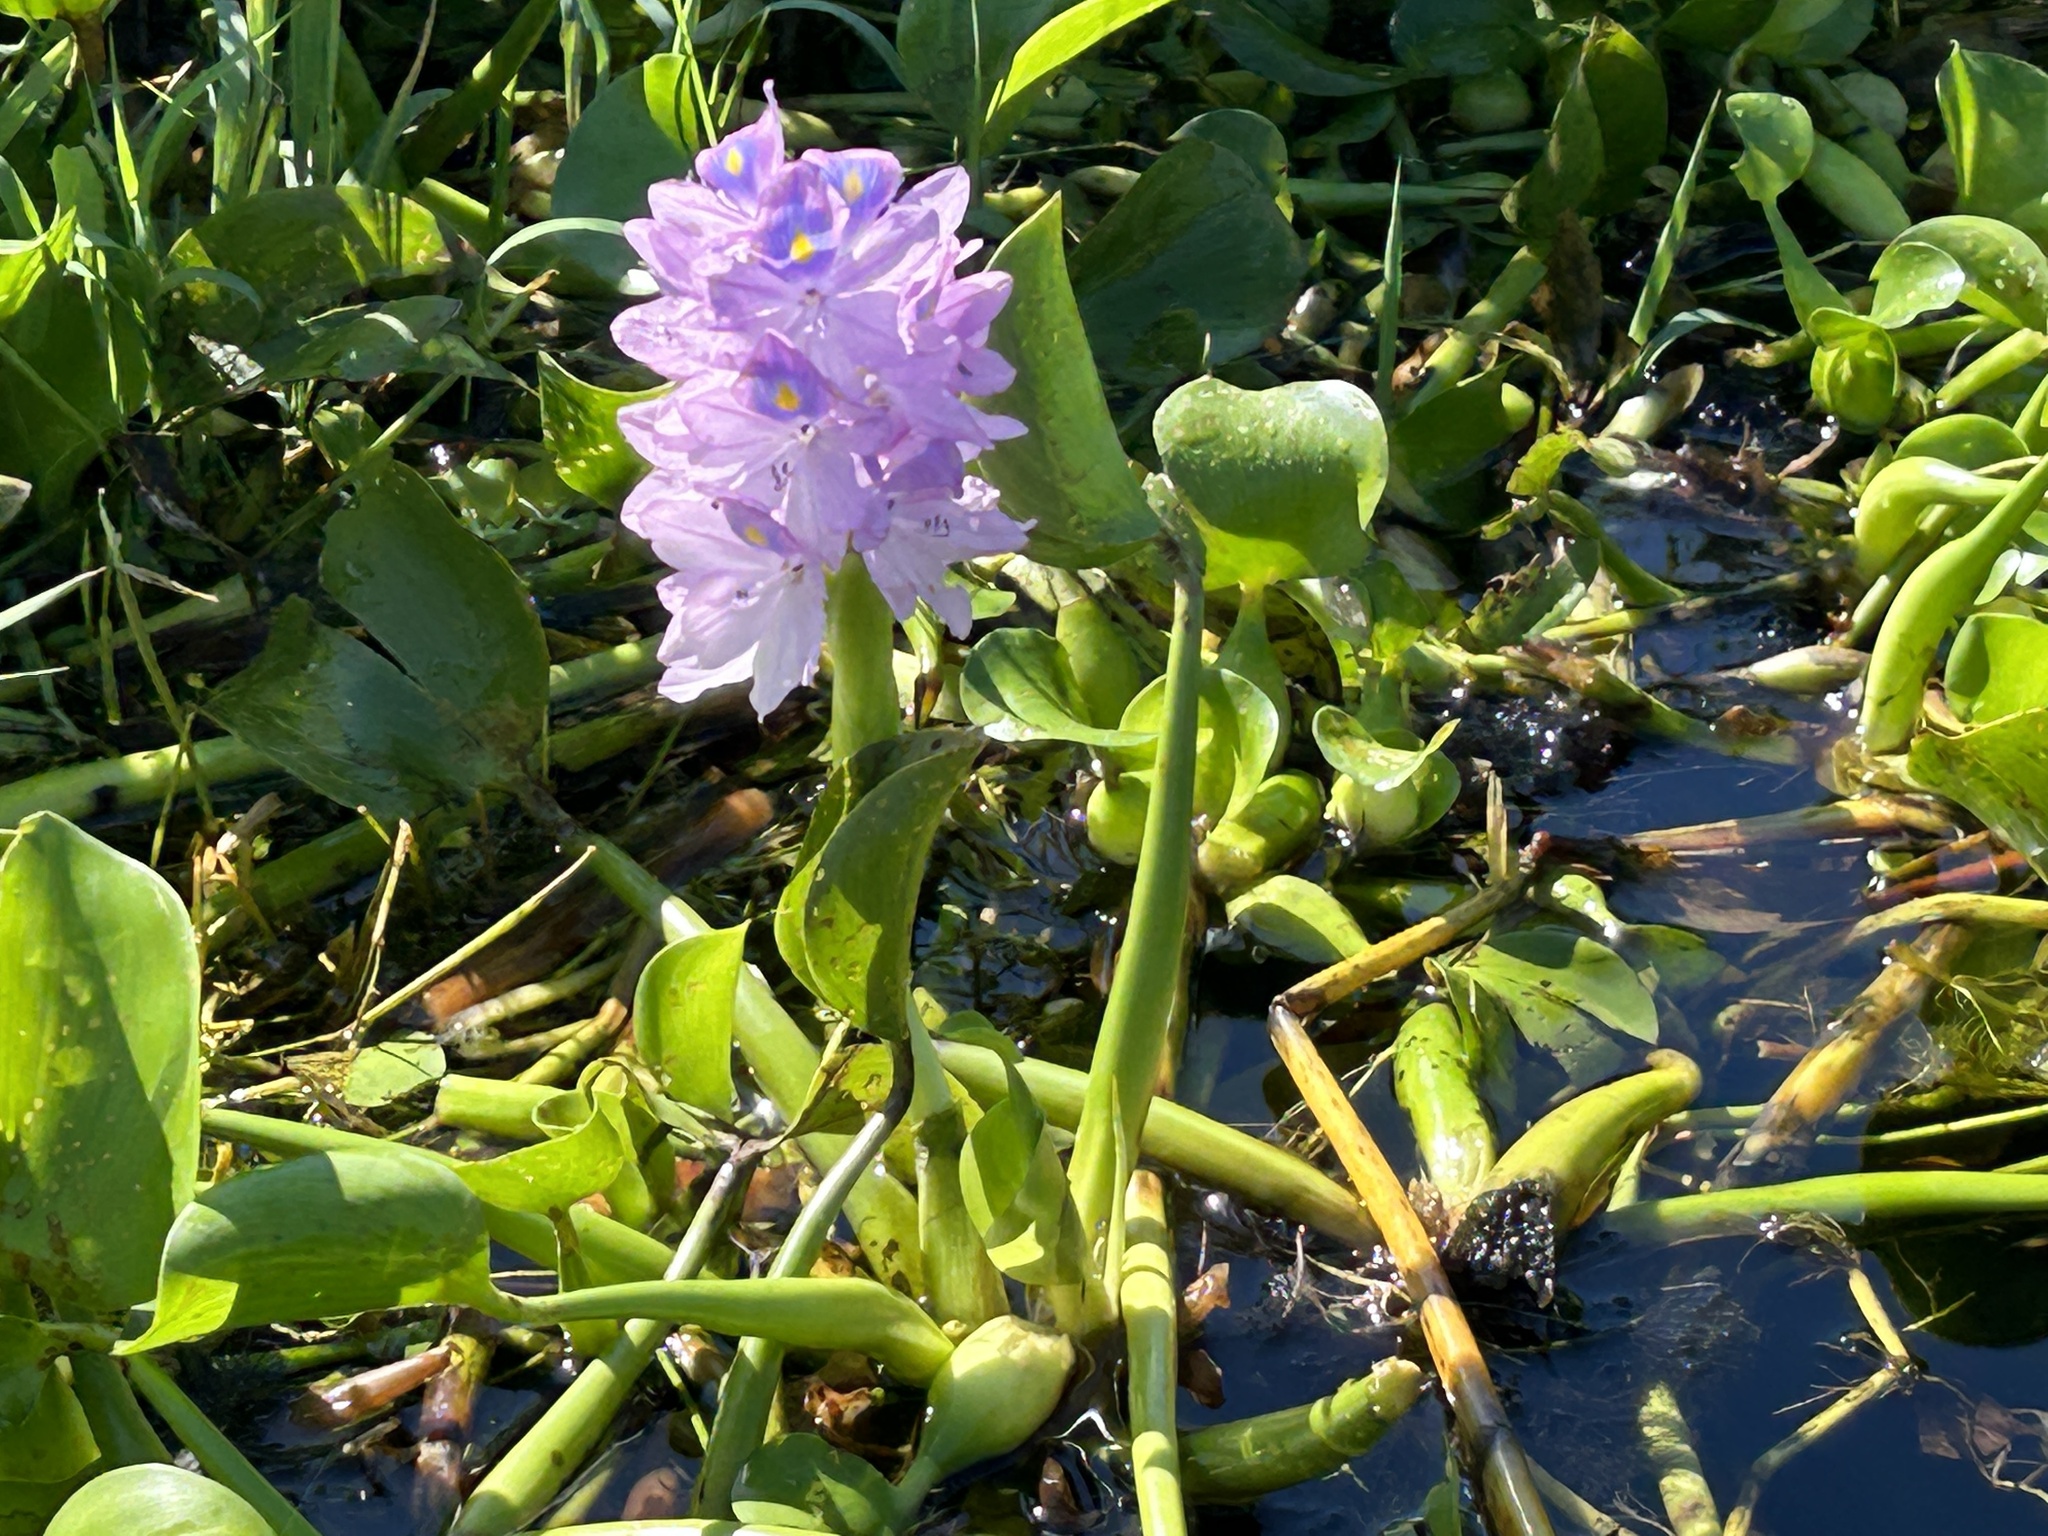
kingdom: Plantae
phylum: Tracheophyta
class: Liliopsida
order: Commelinales
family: Pontederiaceae
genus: Pontederia
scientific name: Pontederia crassipes
